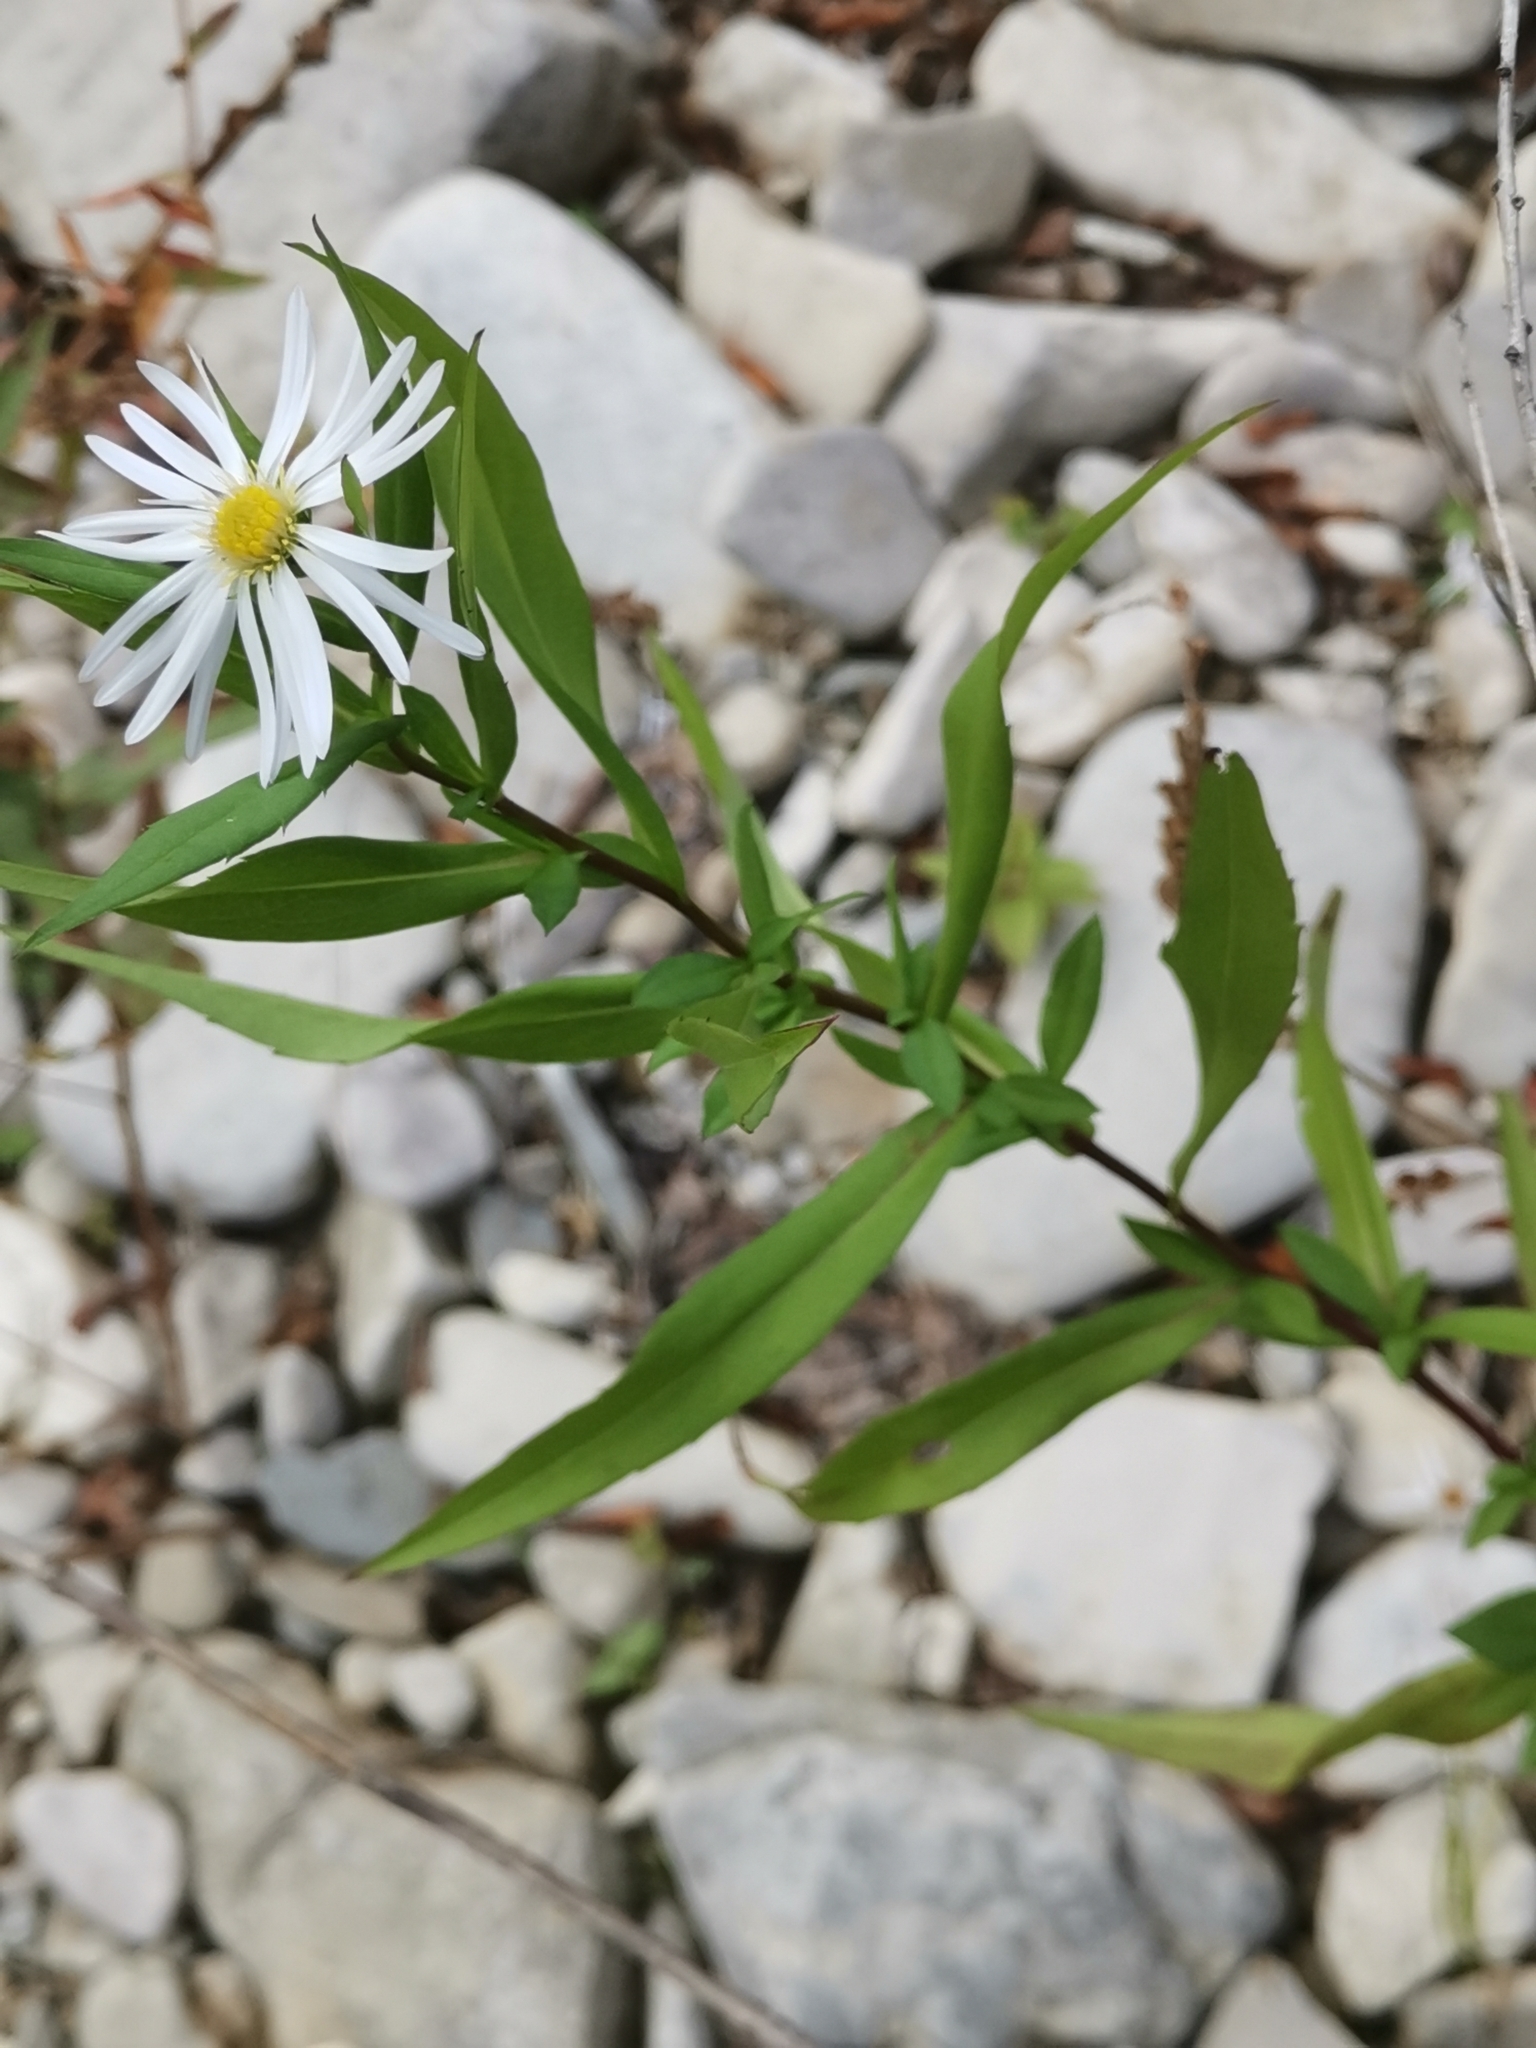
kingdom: Plantae
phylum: Tracheophyta
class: Magnoliopsida
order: Asterales
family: Asteraceae
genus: Symphyotrichum
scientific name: Symphyotrichum lanceolatum
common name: Panicled aster
